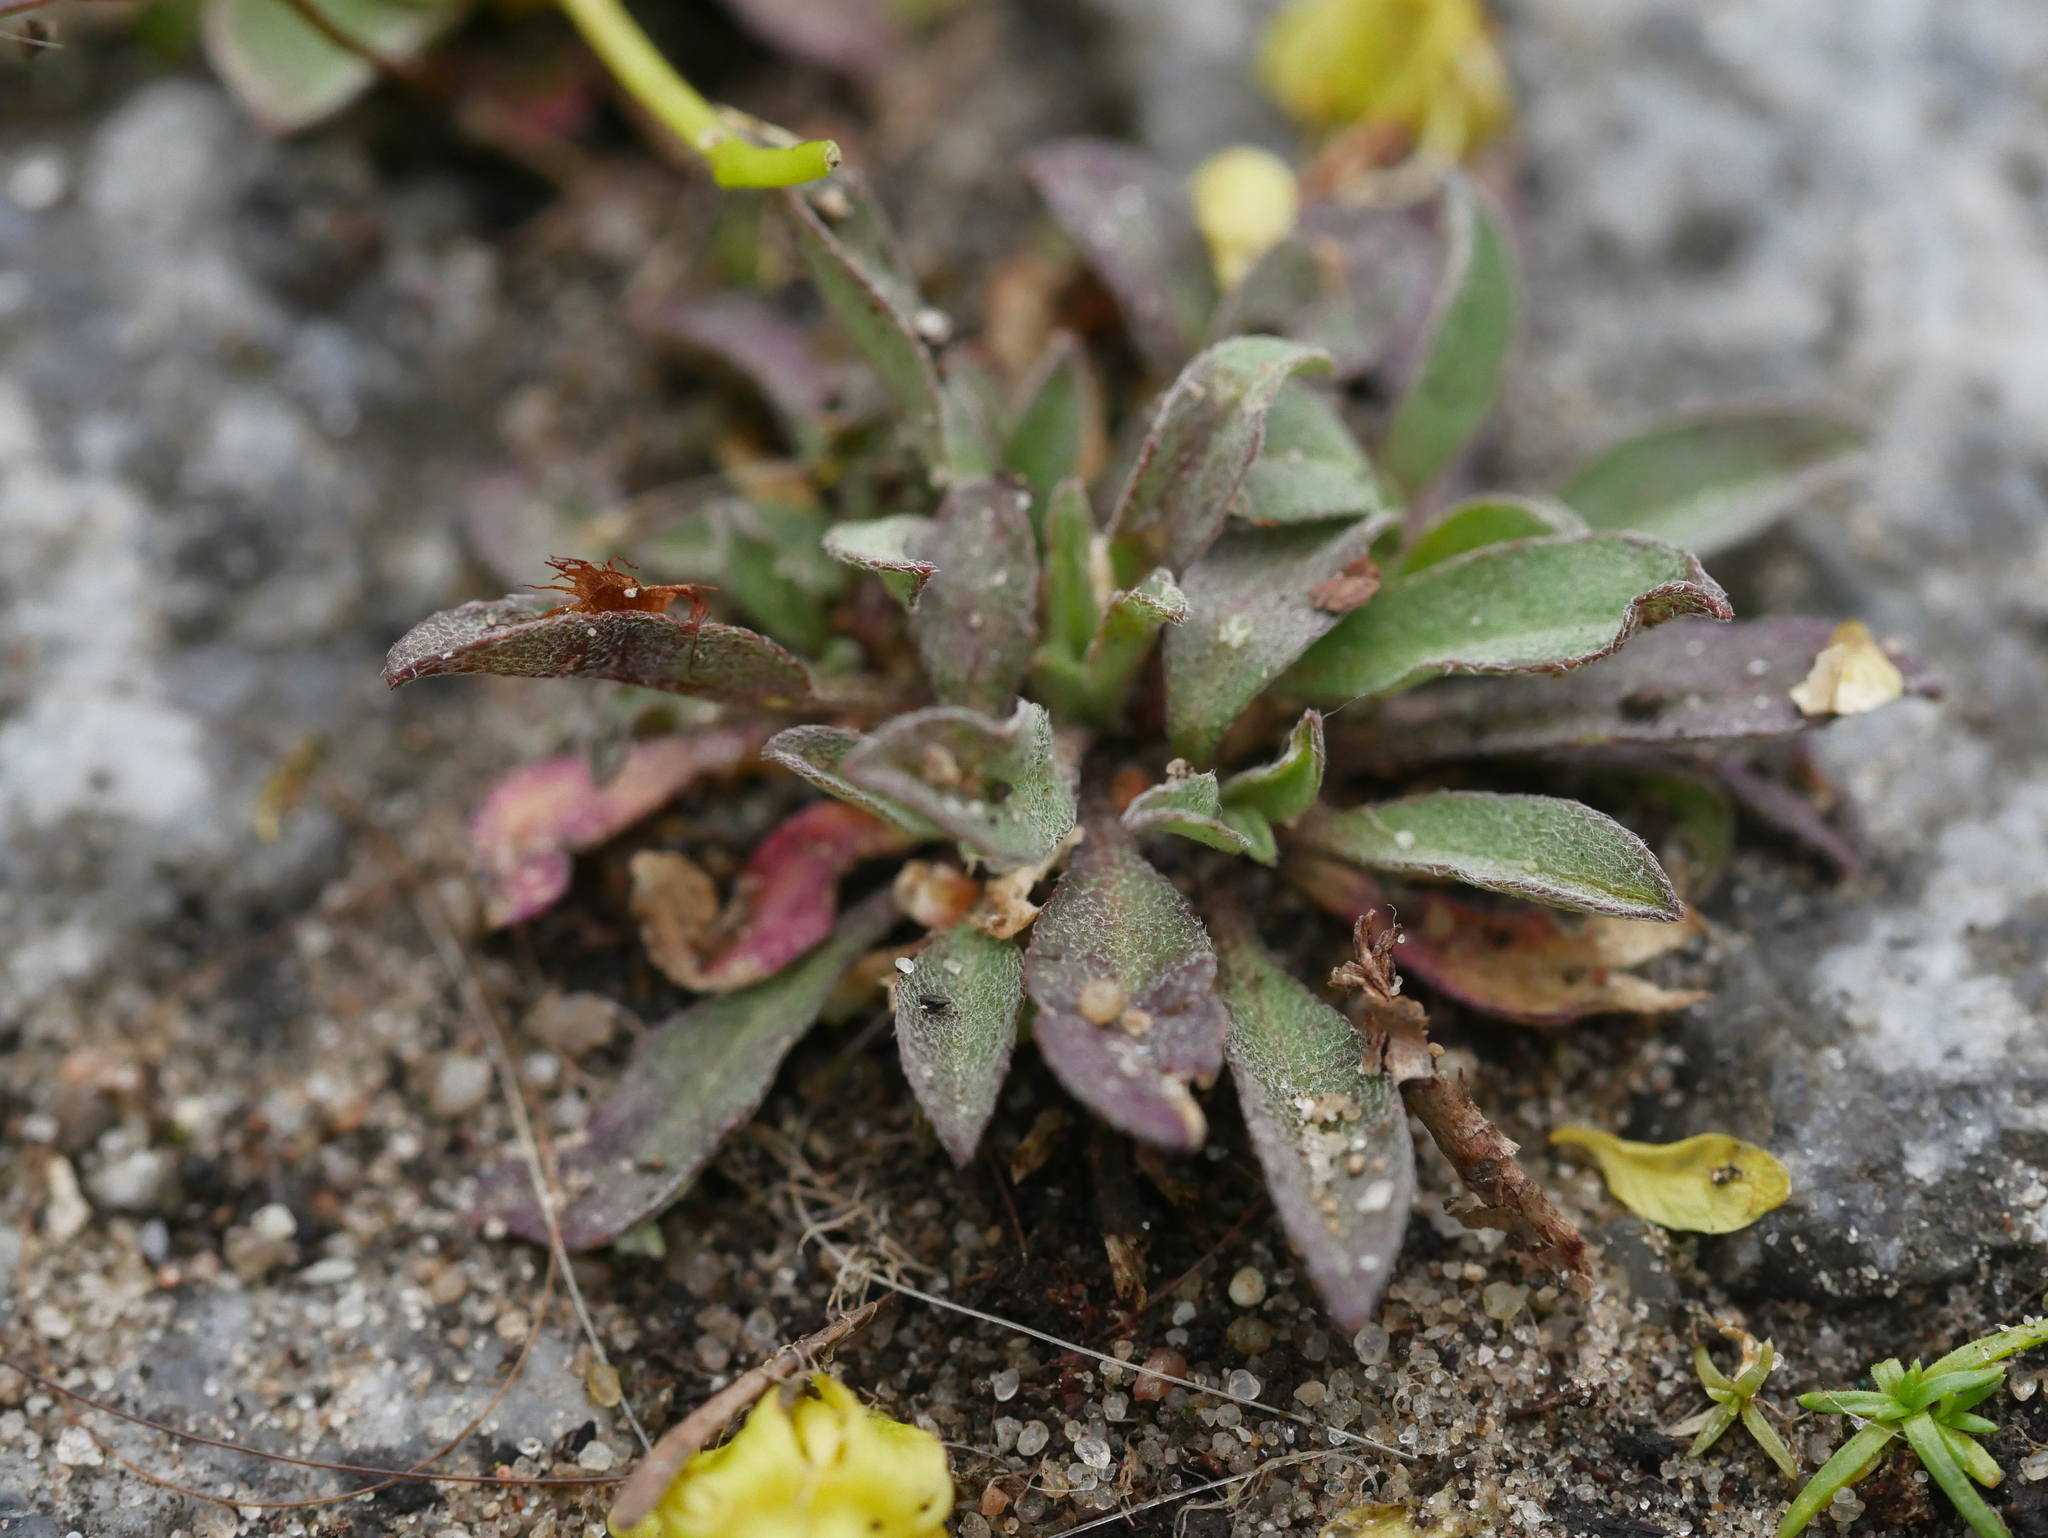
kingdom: Plantae
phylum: Tracheophyta
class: Magnoliopsida
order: Brassicales
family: Brassicaceae
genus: Berteroa
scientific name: Berteroa incana
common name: Hoary alison
